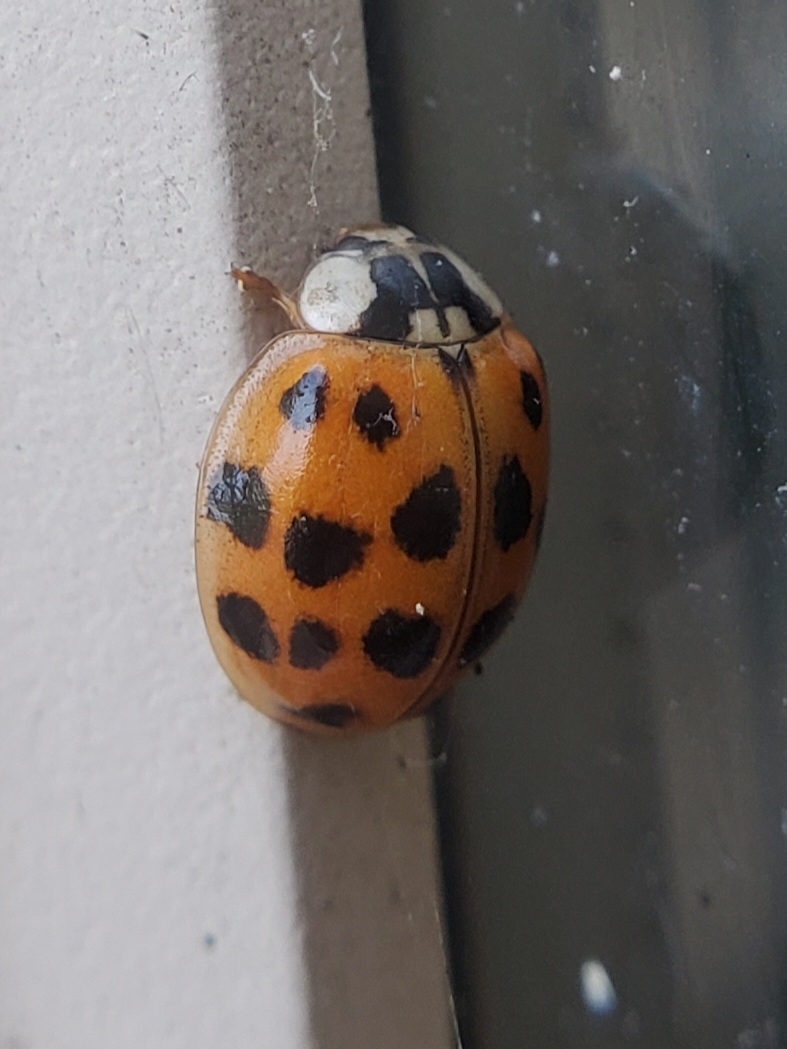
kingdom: Animalia
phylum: Arthropoda
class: Insecta
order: Coleoptera
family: Coccinellidae
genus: Harmonia
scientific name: Harmonia axyridis
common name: Harlequin ladybird
